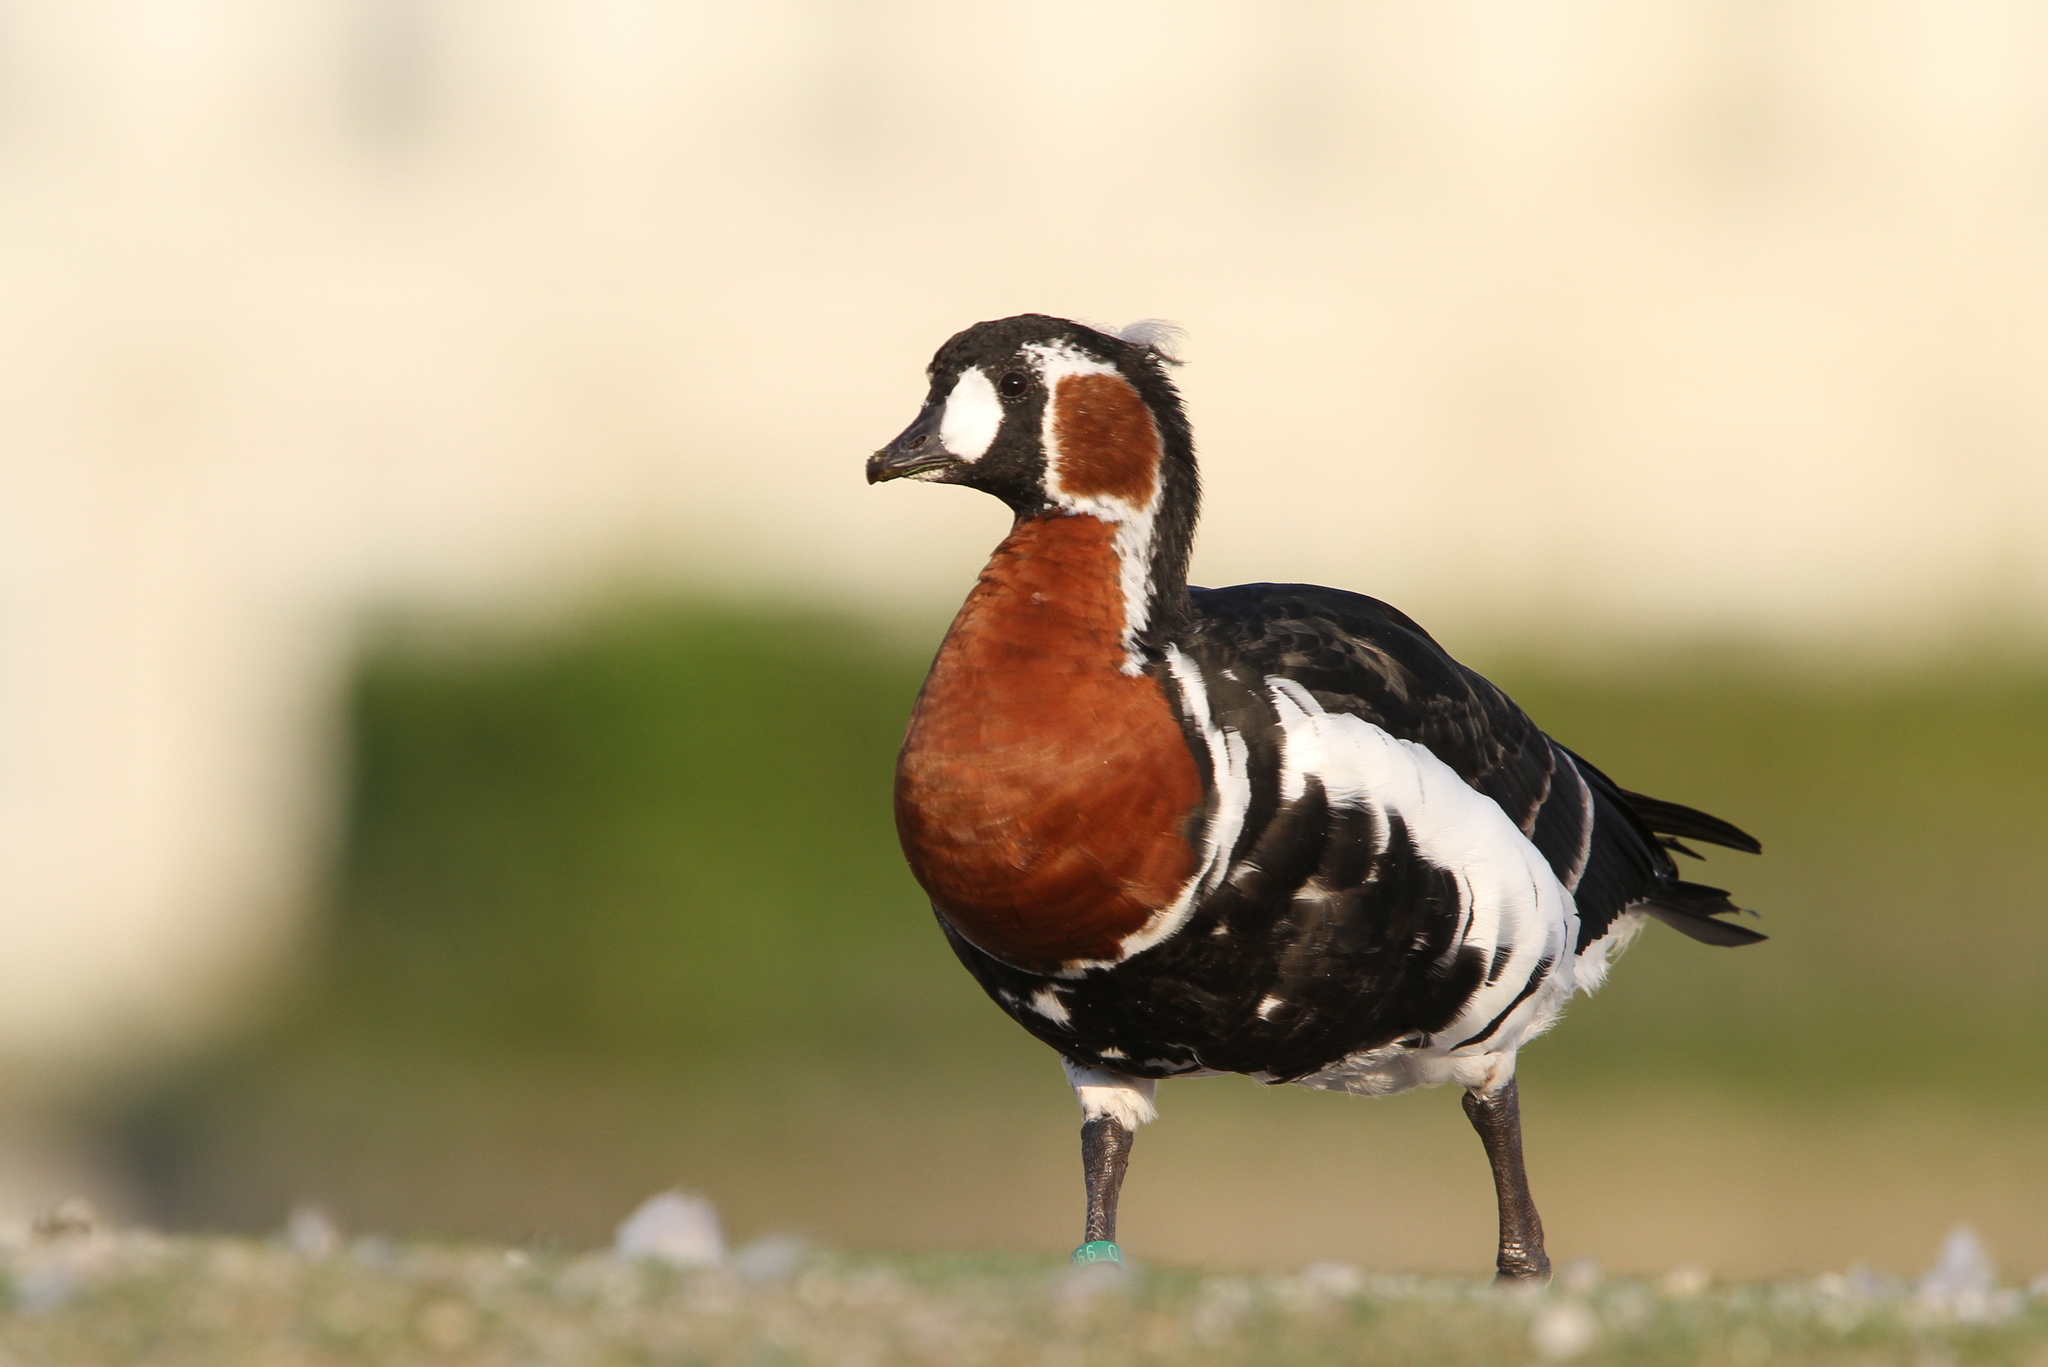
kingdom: Animalia
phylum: Chordata
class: Aves
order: Anseriformes
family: Anatidae
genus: Branta
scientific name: Branta ruficollis
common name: Red-breasted goose
